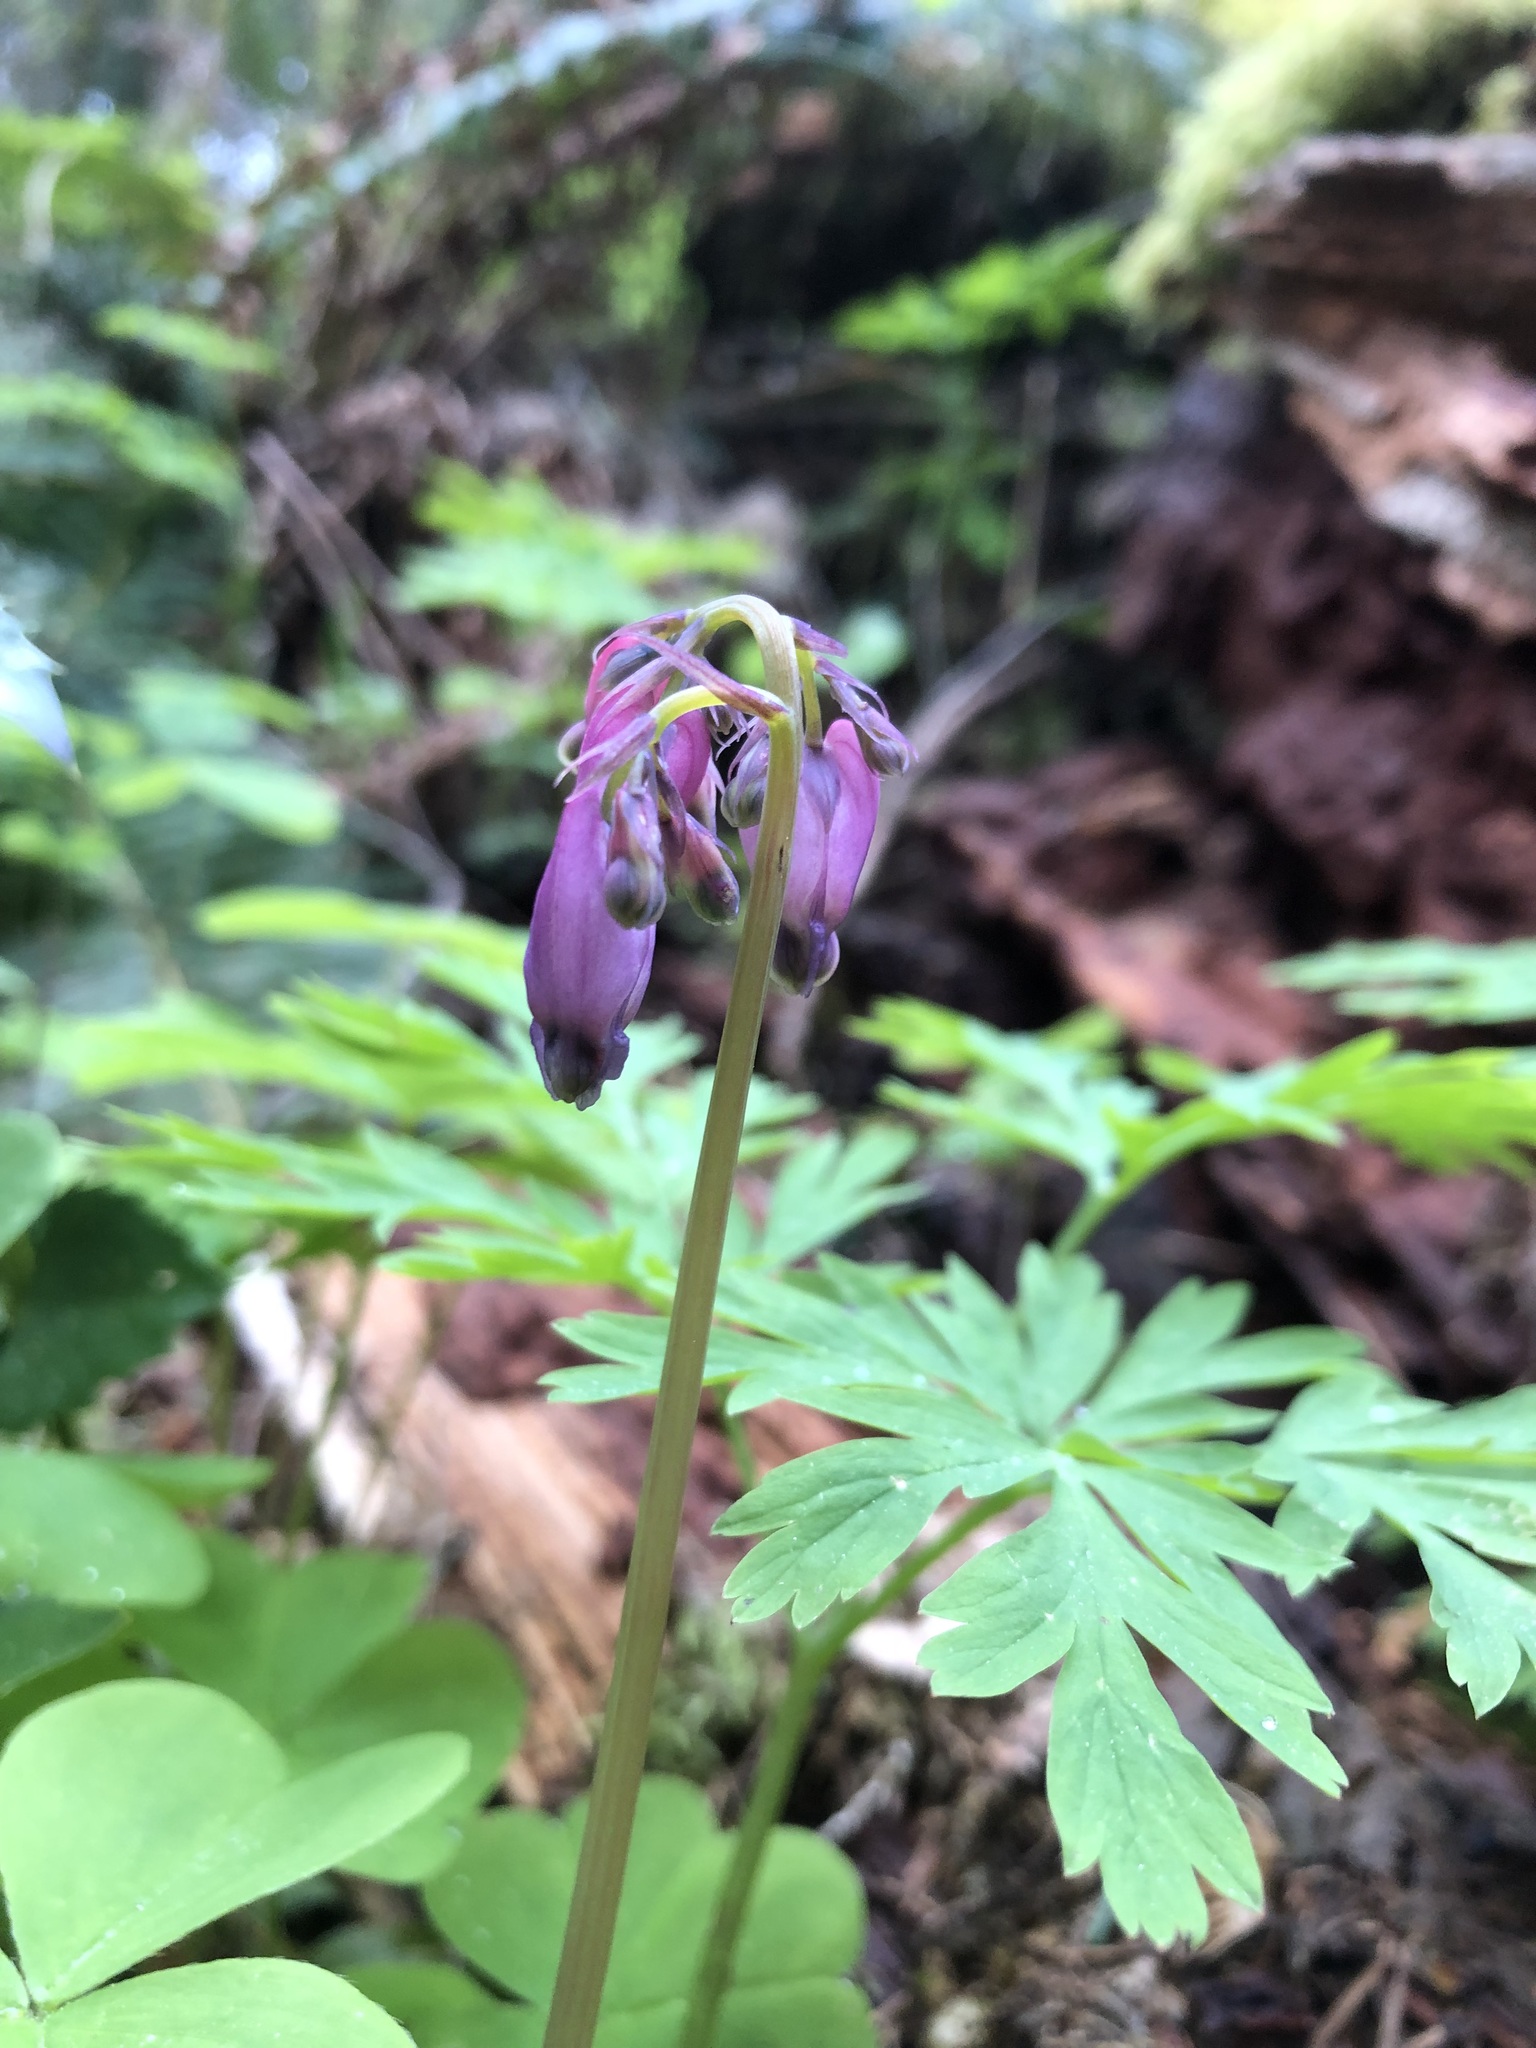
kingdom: Plantae
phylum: Tracheophyta
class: Magnoliopsida
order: Ranunculales
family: Papaveraceae
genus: Dicentra
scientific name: Dicentra formosa
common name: Bleeding-heart
